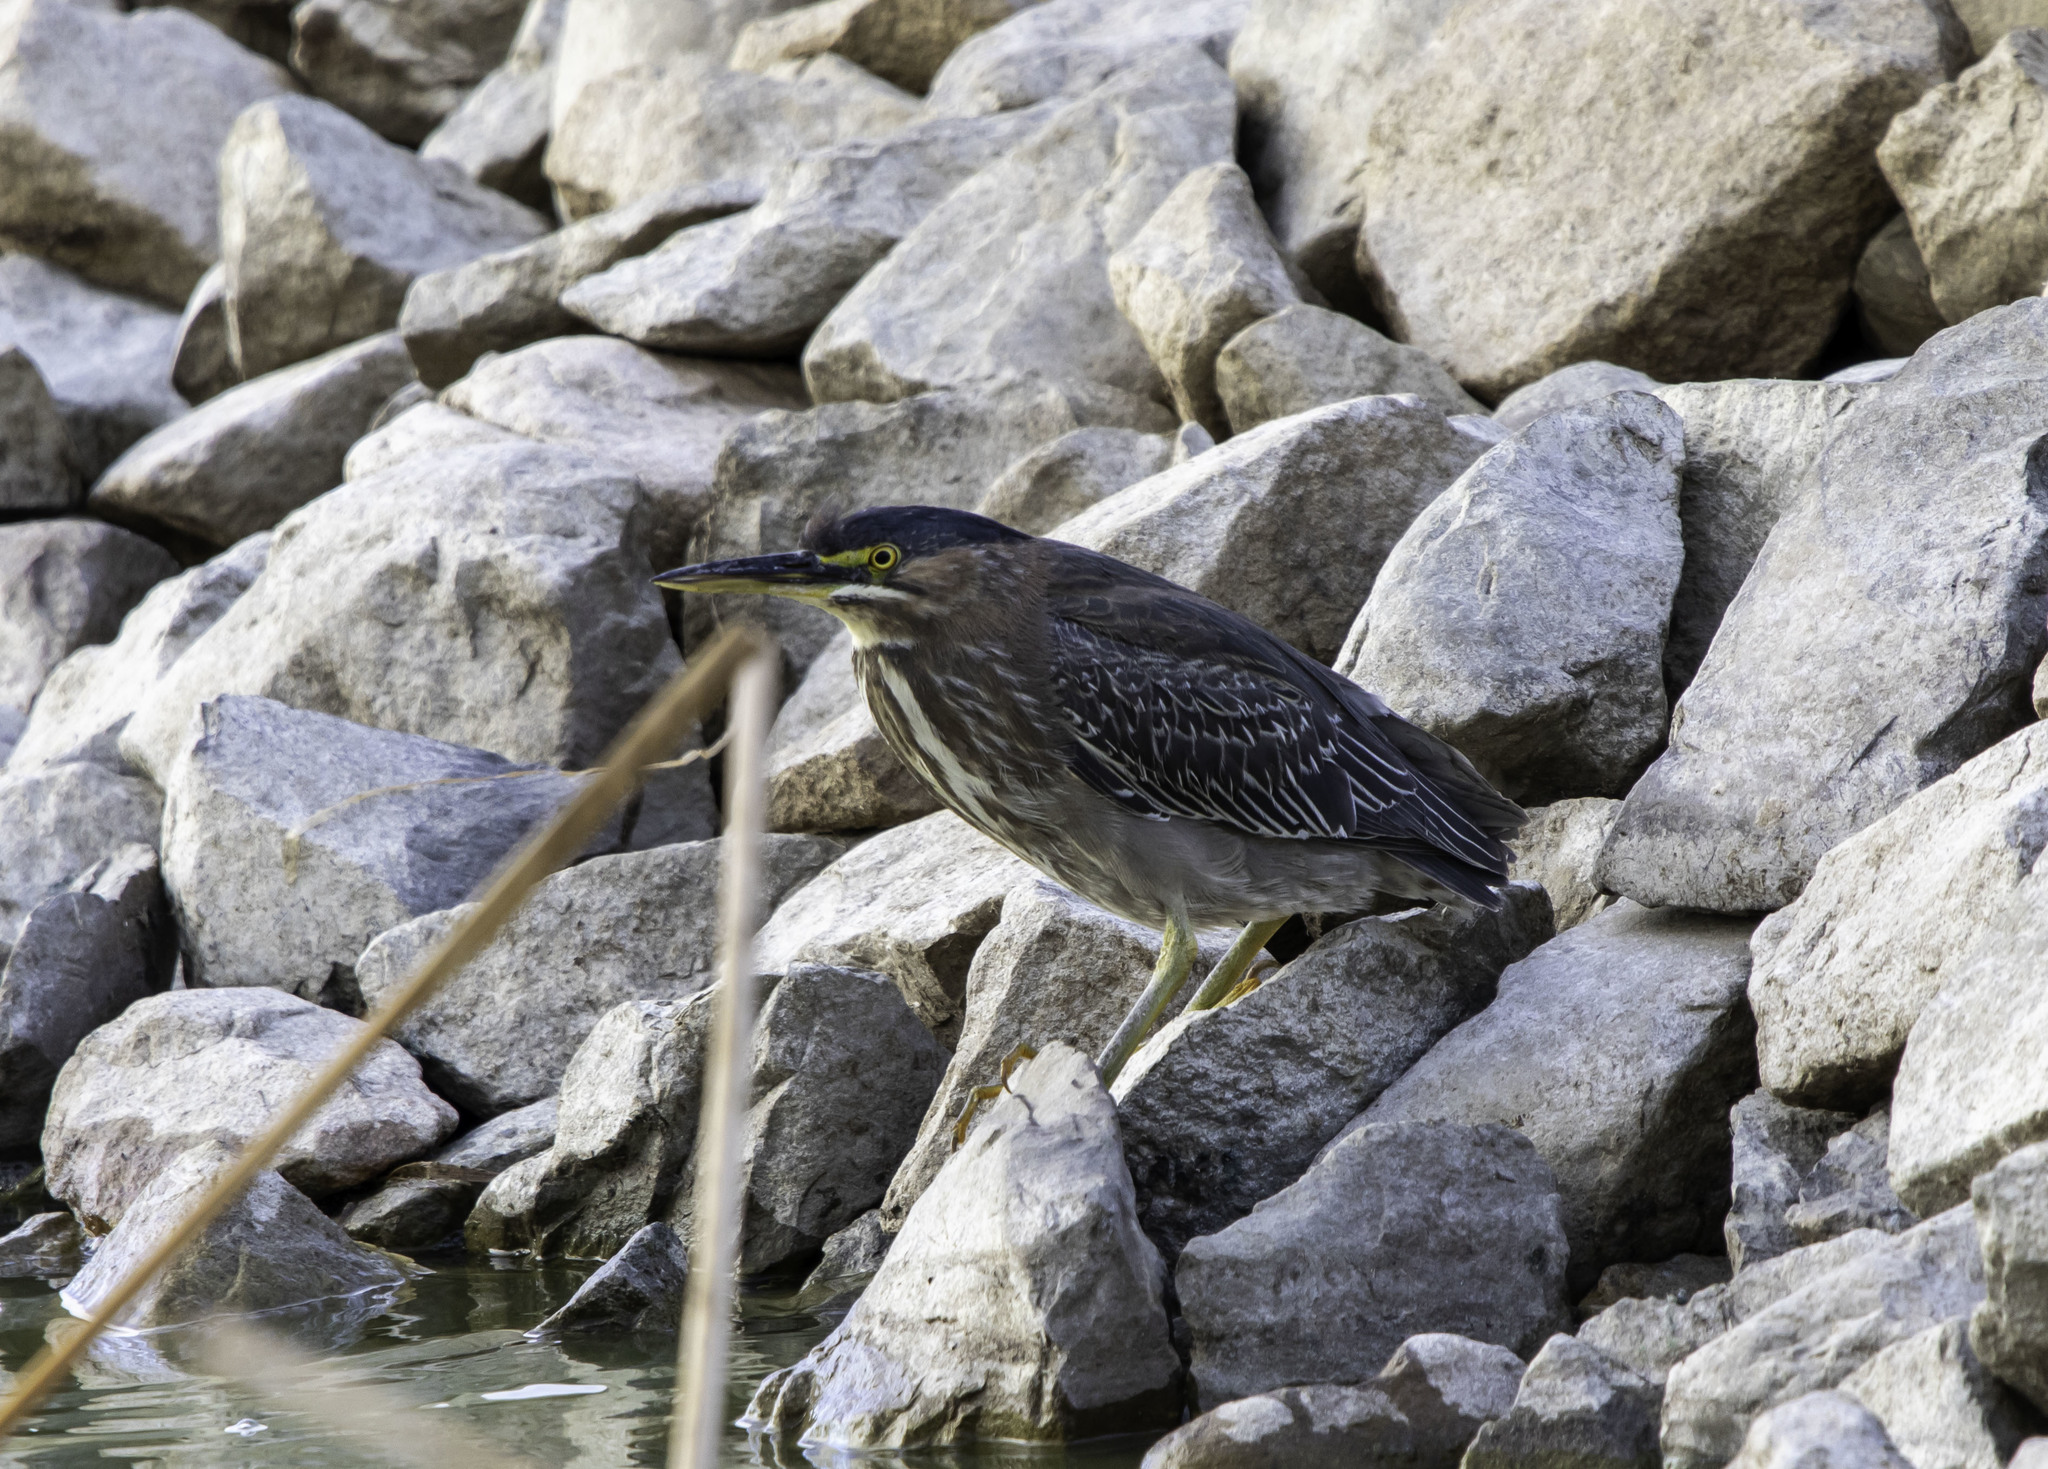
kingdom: Animalia
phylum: Chordata
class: Aves
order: Pelecaniformes
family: Ardeidae
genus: Butorides
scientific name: Butorides virescens
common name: Green heron
